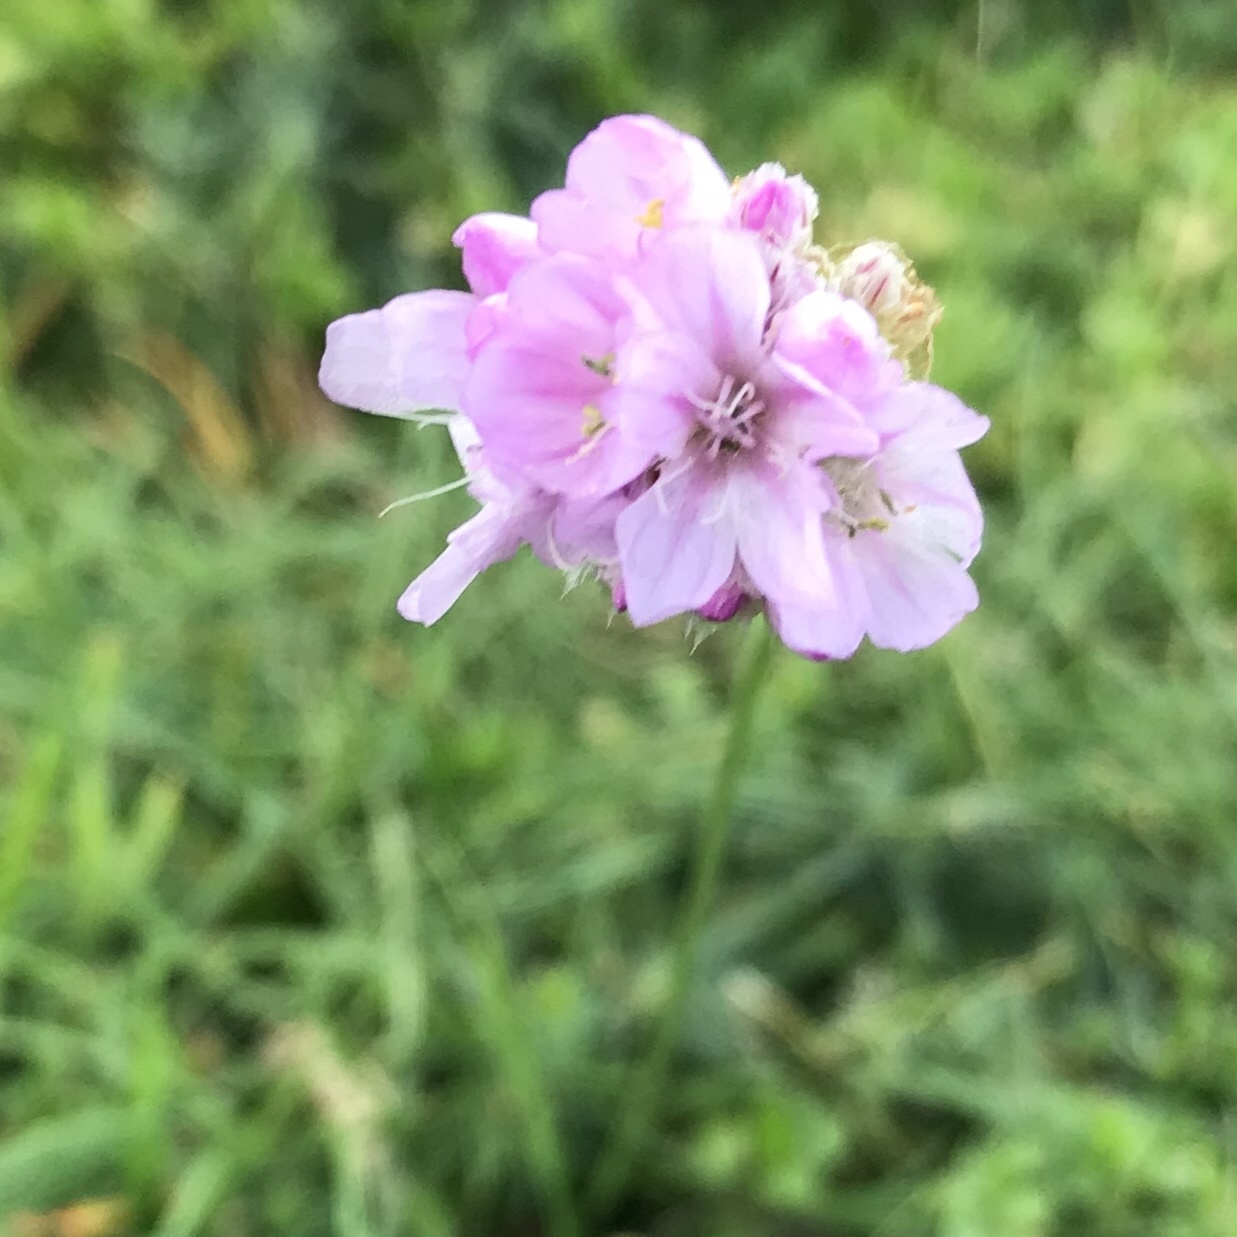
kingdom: Plantae
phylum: Tracheophyta
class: Magnoliopsida
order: Caryophyllales
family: Plumbaginaceae
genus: Armeria
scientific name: Armeria maritima
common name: Thrift
